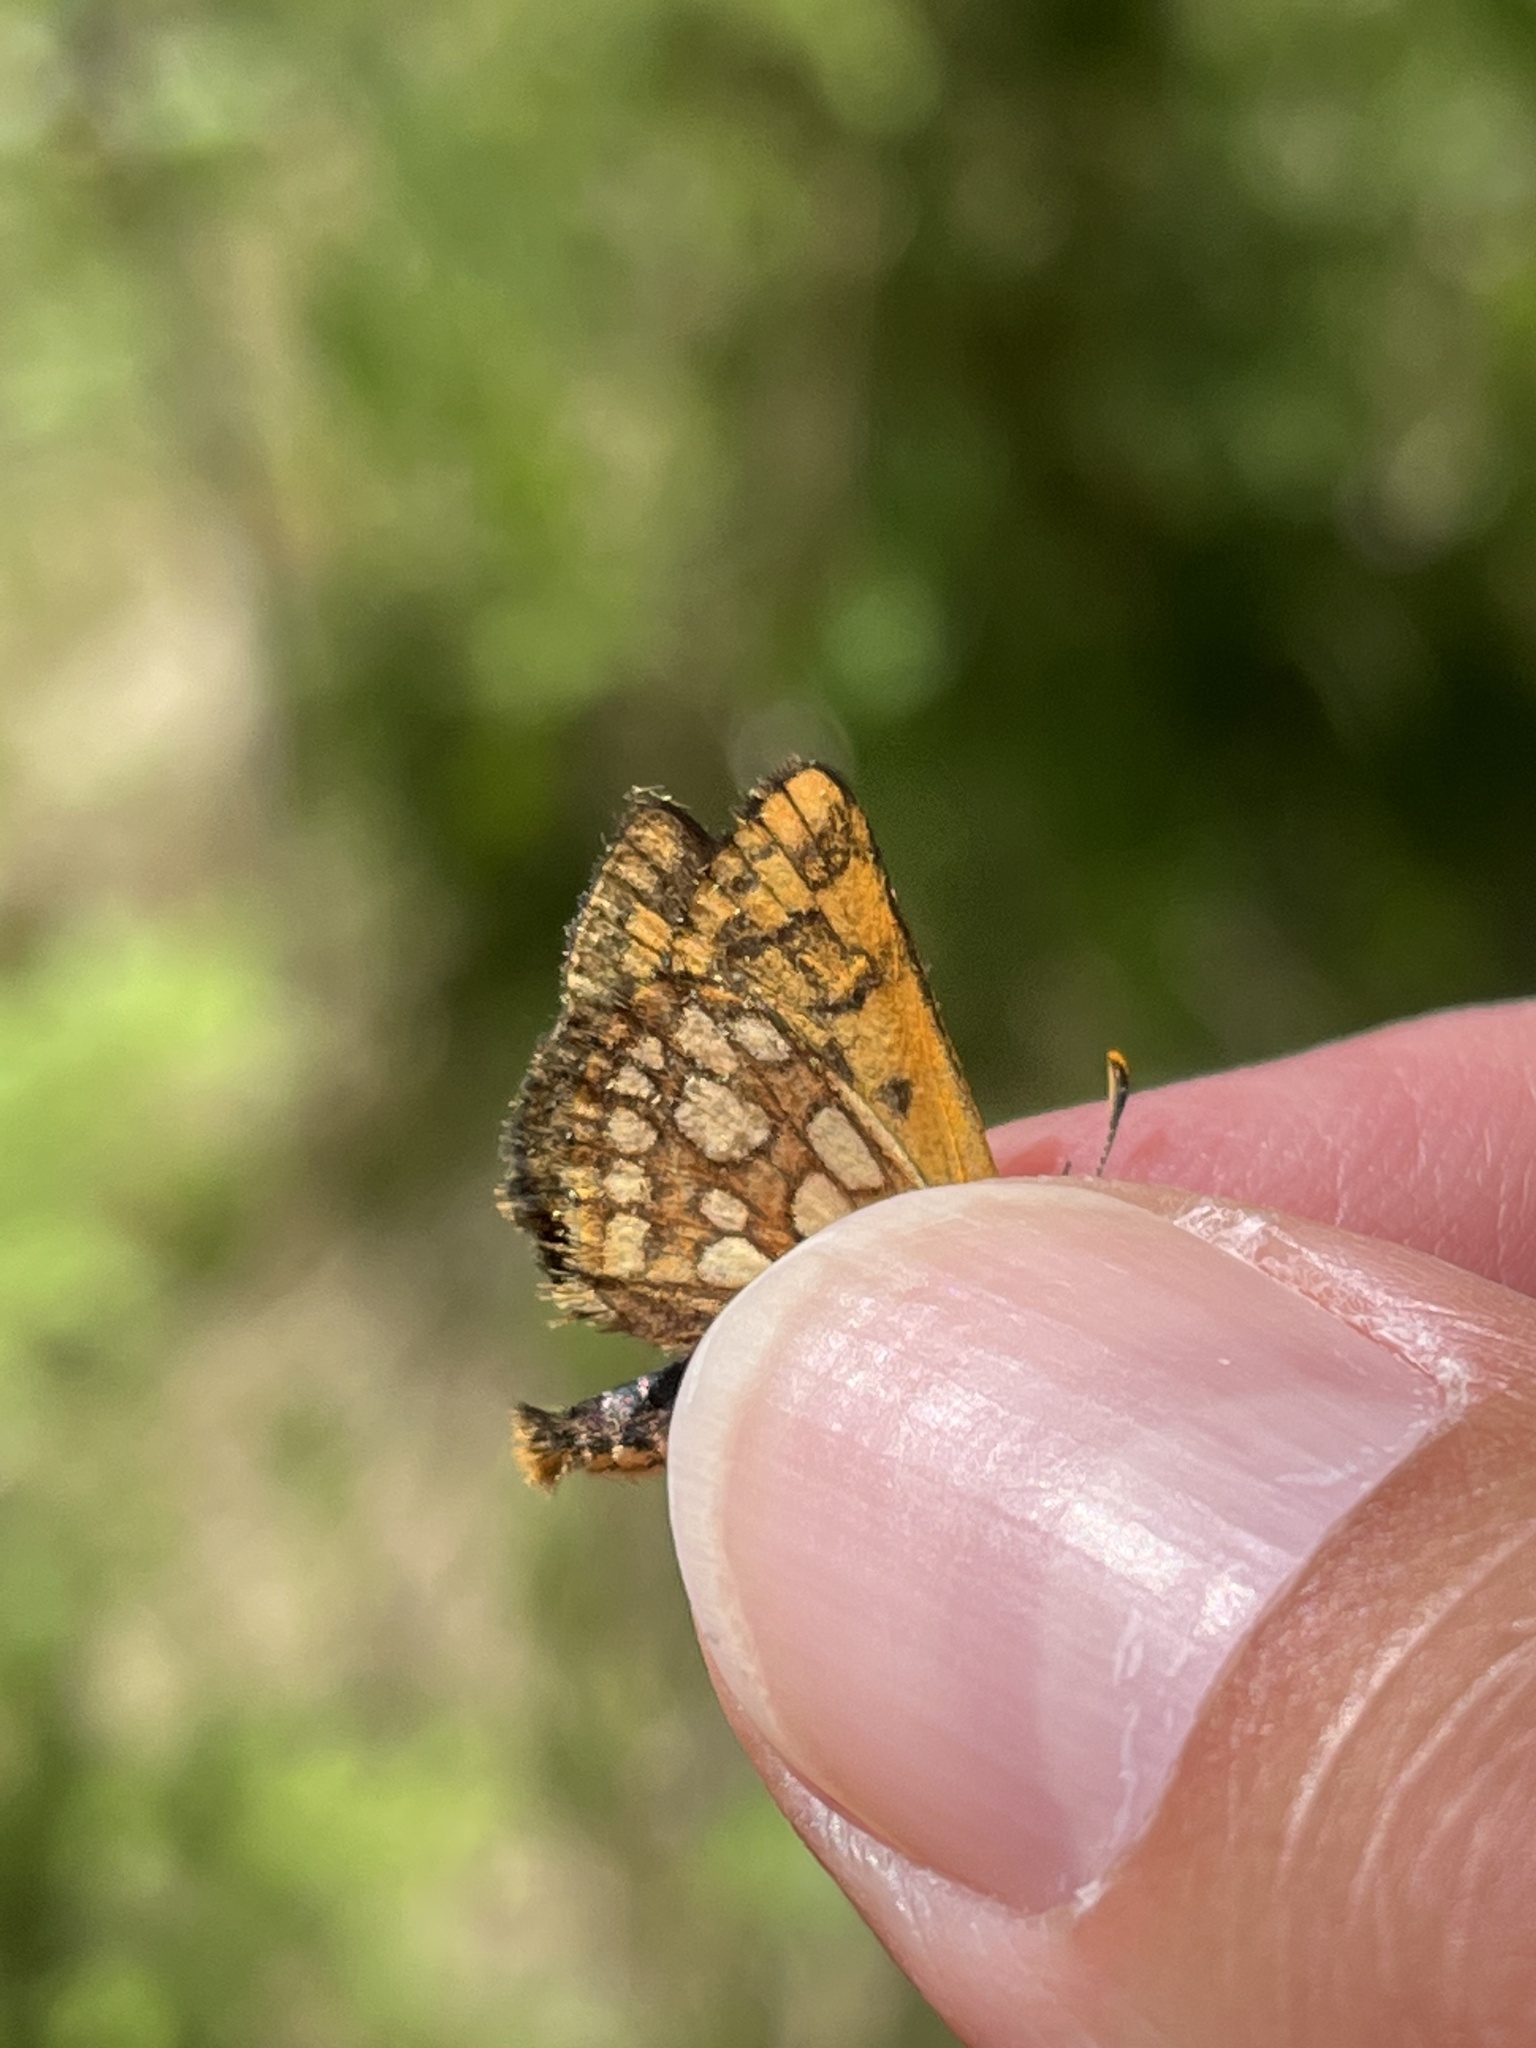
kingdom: Animalia
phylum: Arthropoda
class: Insecta
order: Lepidoptera
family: Hesperiidae
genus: Carterocephalus
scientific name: Carterocephalus skada
